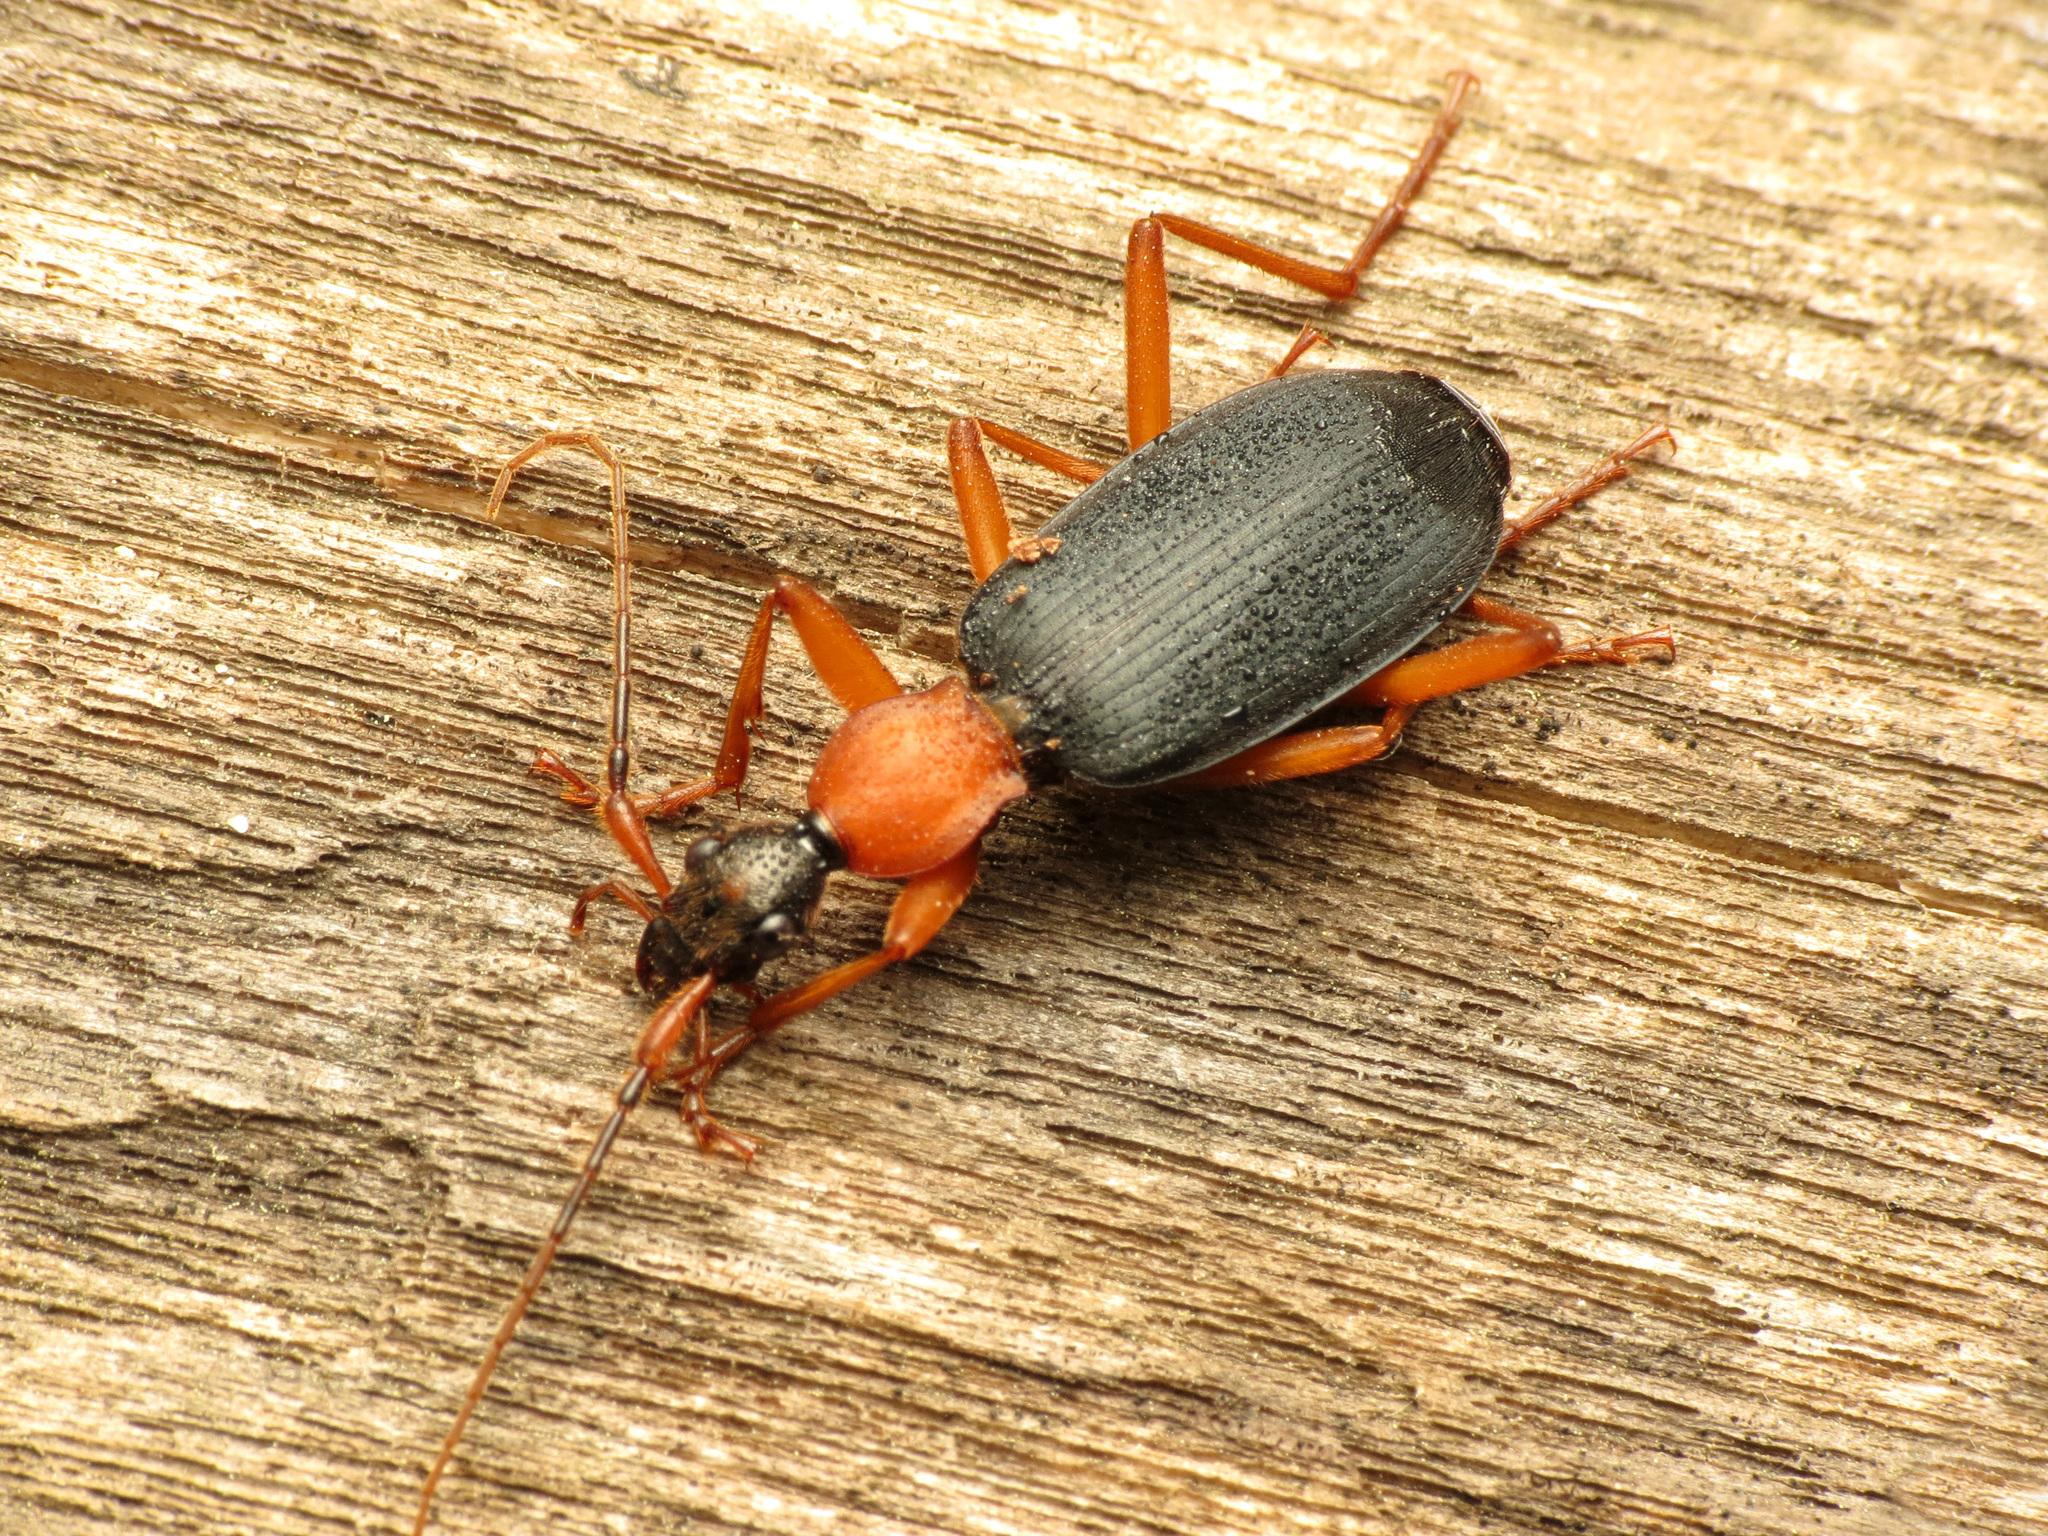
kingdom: Animalia
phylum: Arthropoda
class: Insecta
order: Coleoptera
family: Carabidae
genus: Galerita
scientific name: Galerita bicolor
